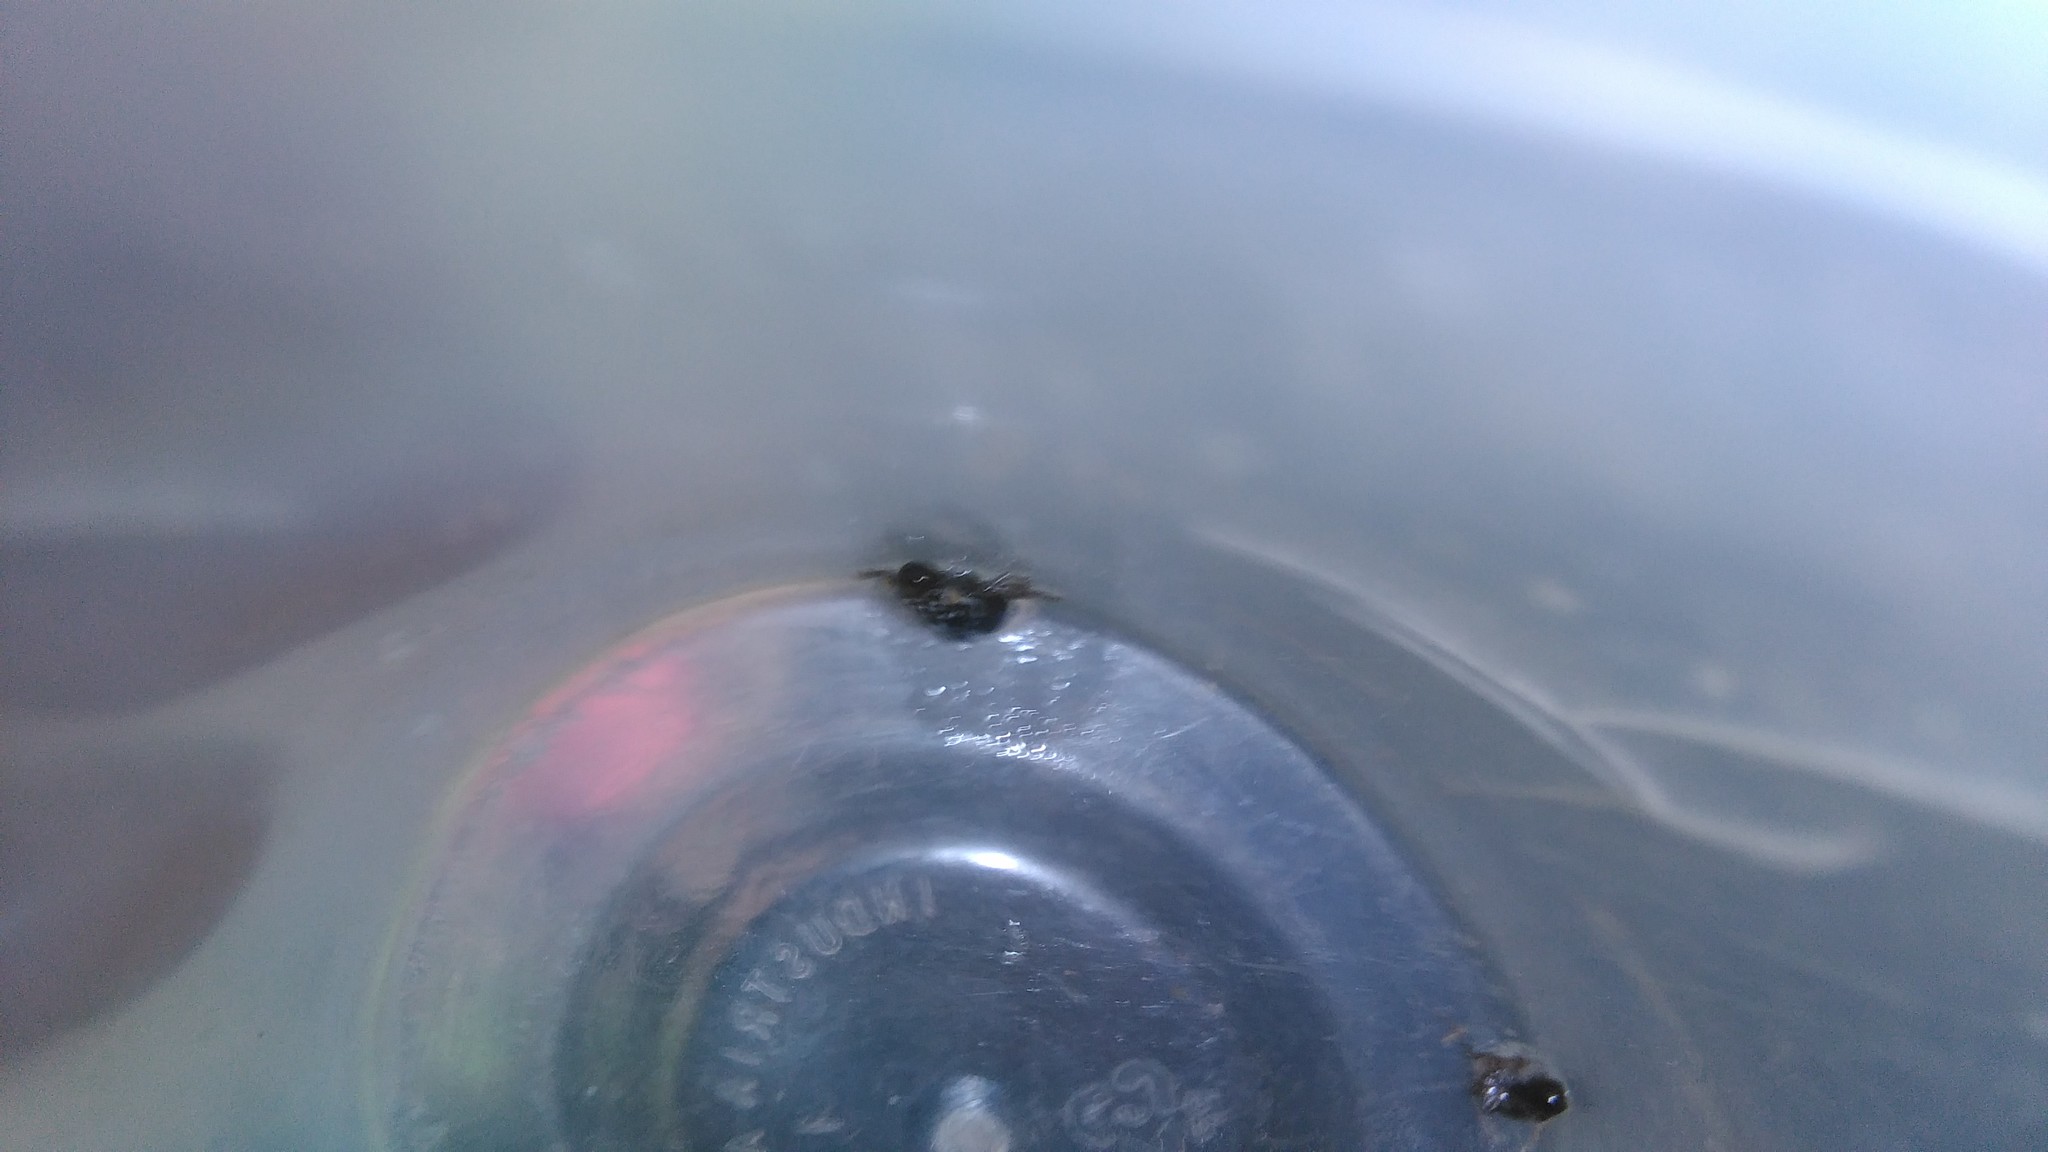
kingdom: Animalia
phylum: Arthropoda
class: Insecta
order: Hemiptera
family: Aphrophoridae
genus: Cephisus
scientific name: Cephisus siccifolius
